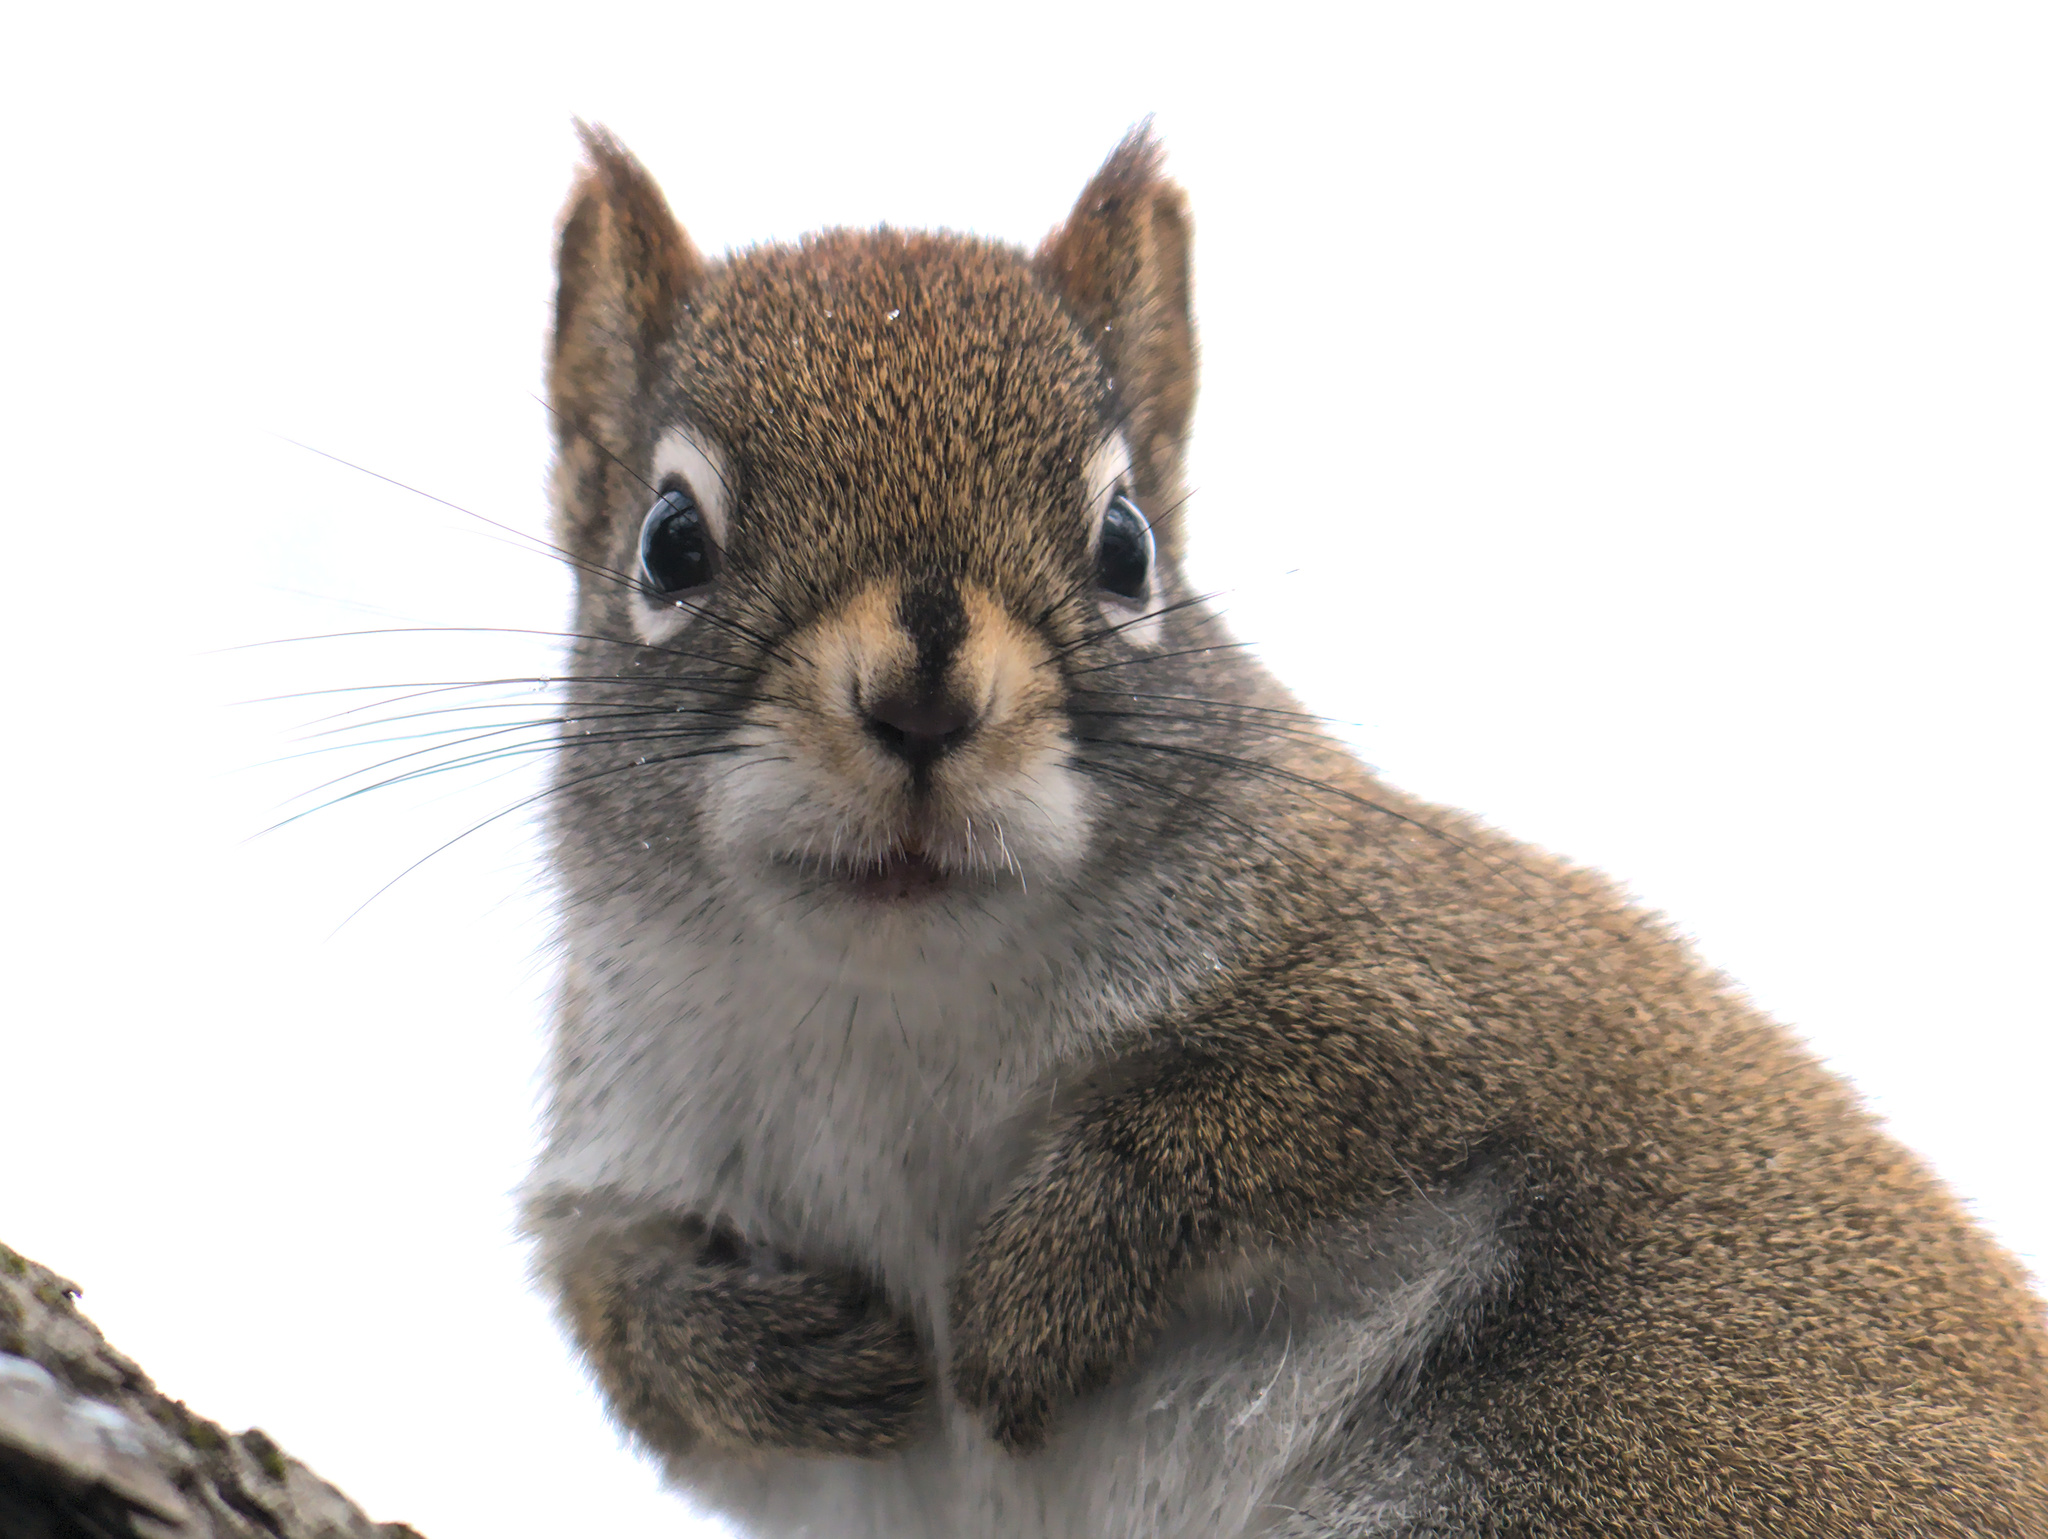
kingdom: Animalia
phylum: Chordata
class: Mammalia
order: Rodentia
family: Sciuridae
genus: Tamiasciurus
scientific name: Tamiasciurus hudsonicus
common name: Red squirrel
